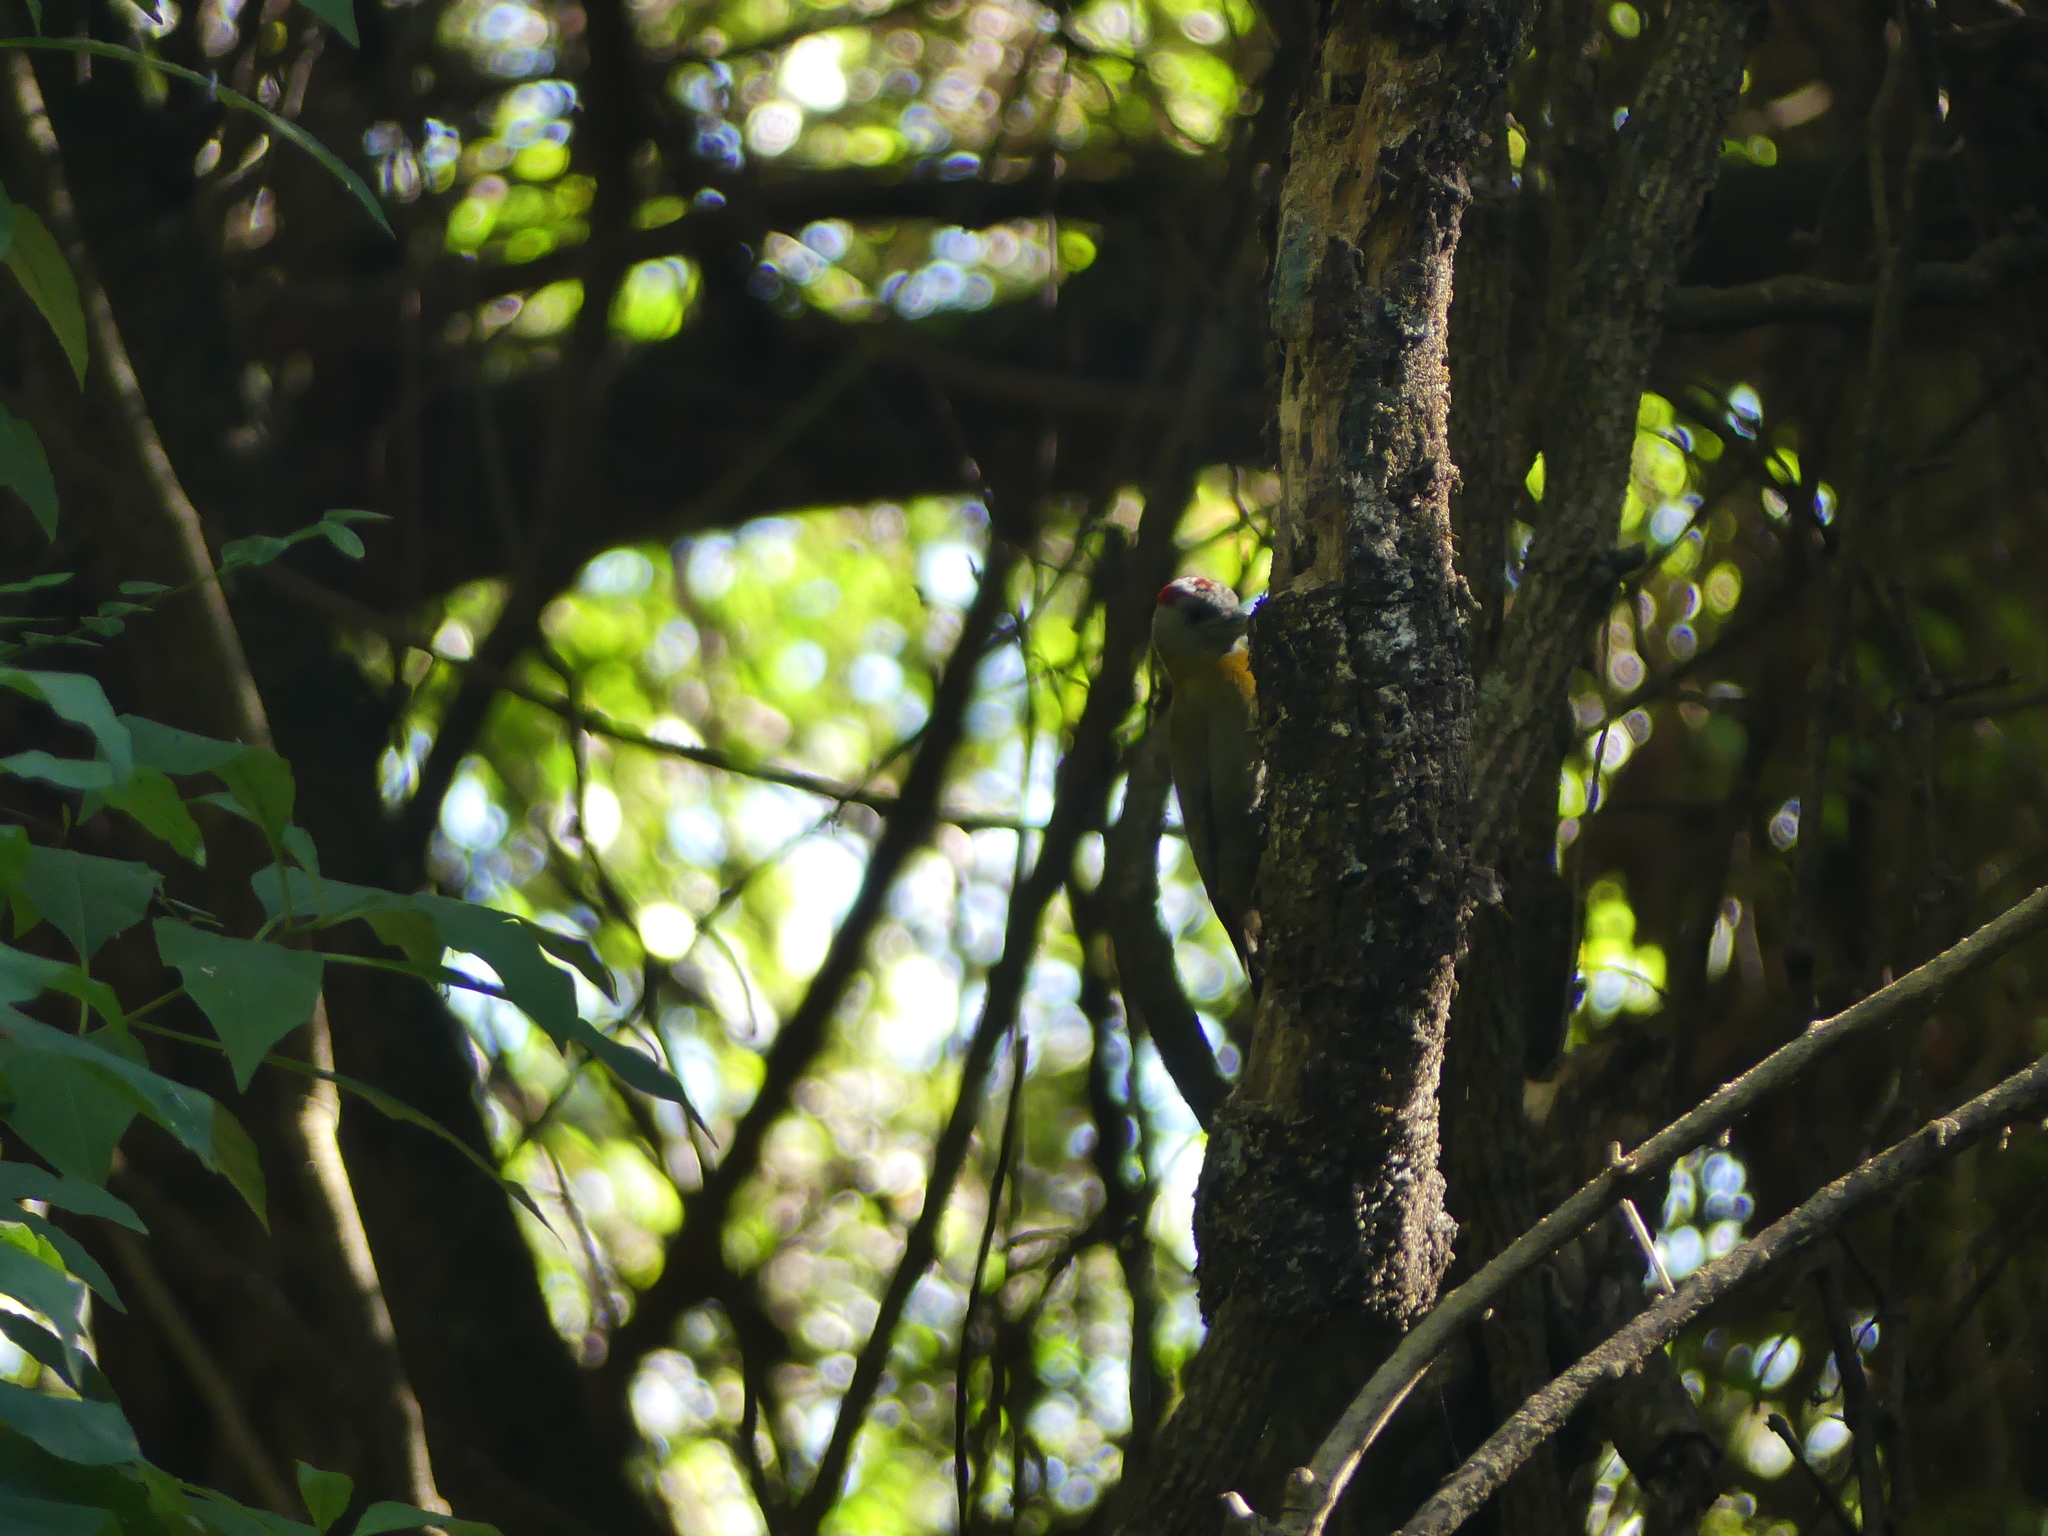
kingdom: Animalia
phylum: Chordata
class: Aves
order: Piciformes
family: Picidae
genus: Dendropicos
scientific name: Dendropicos griseocephalus
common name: Olive woodpecker
